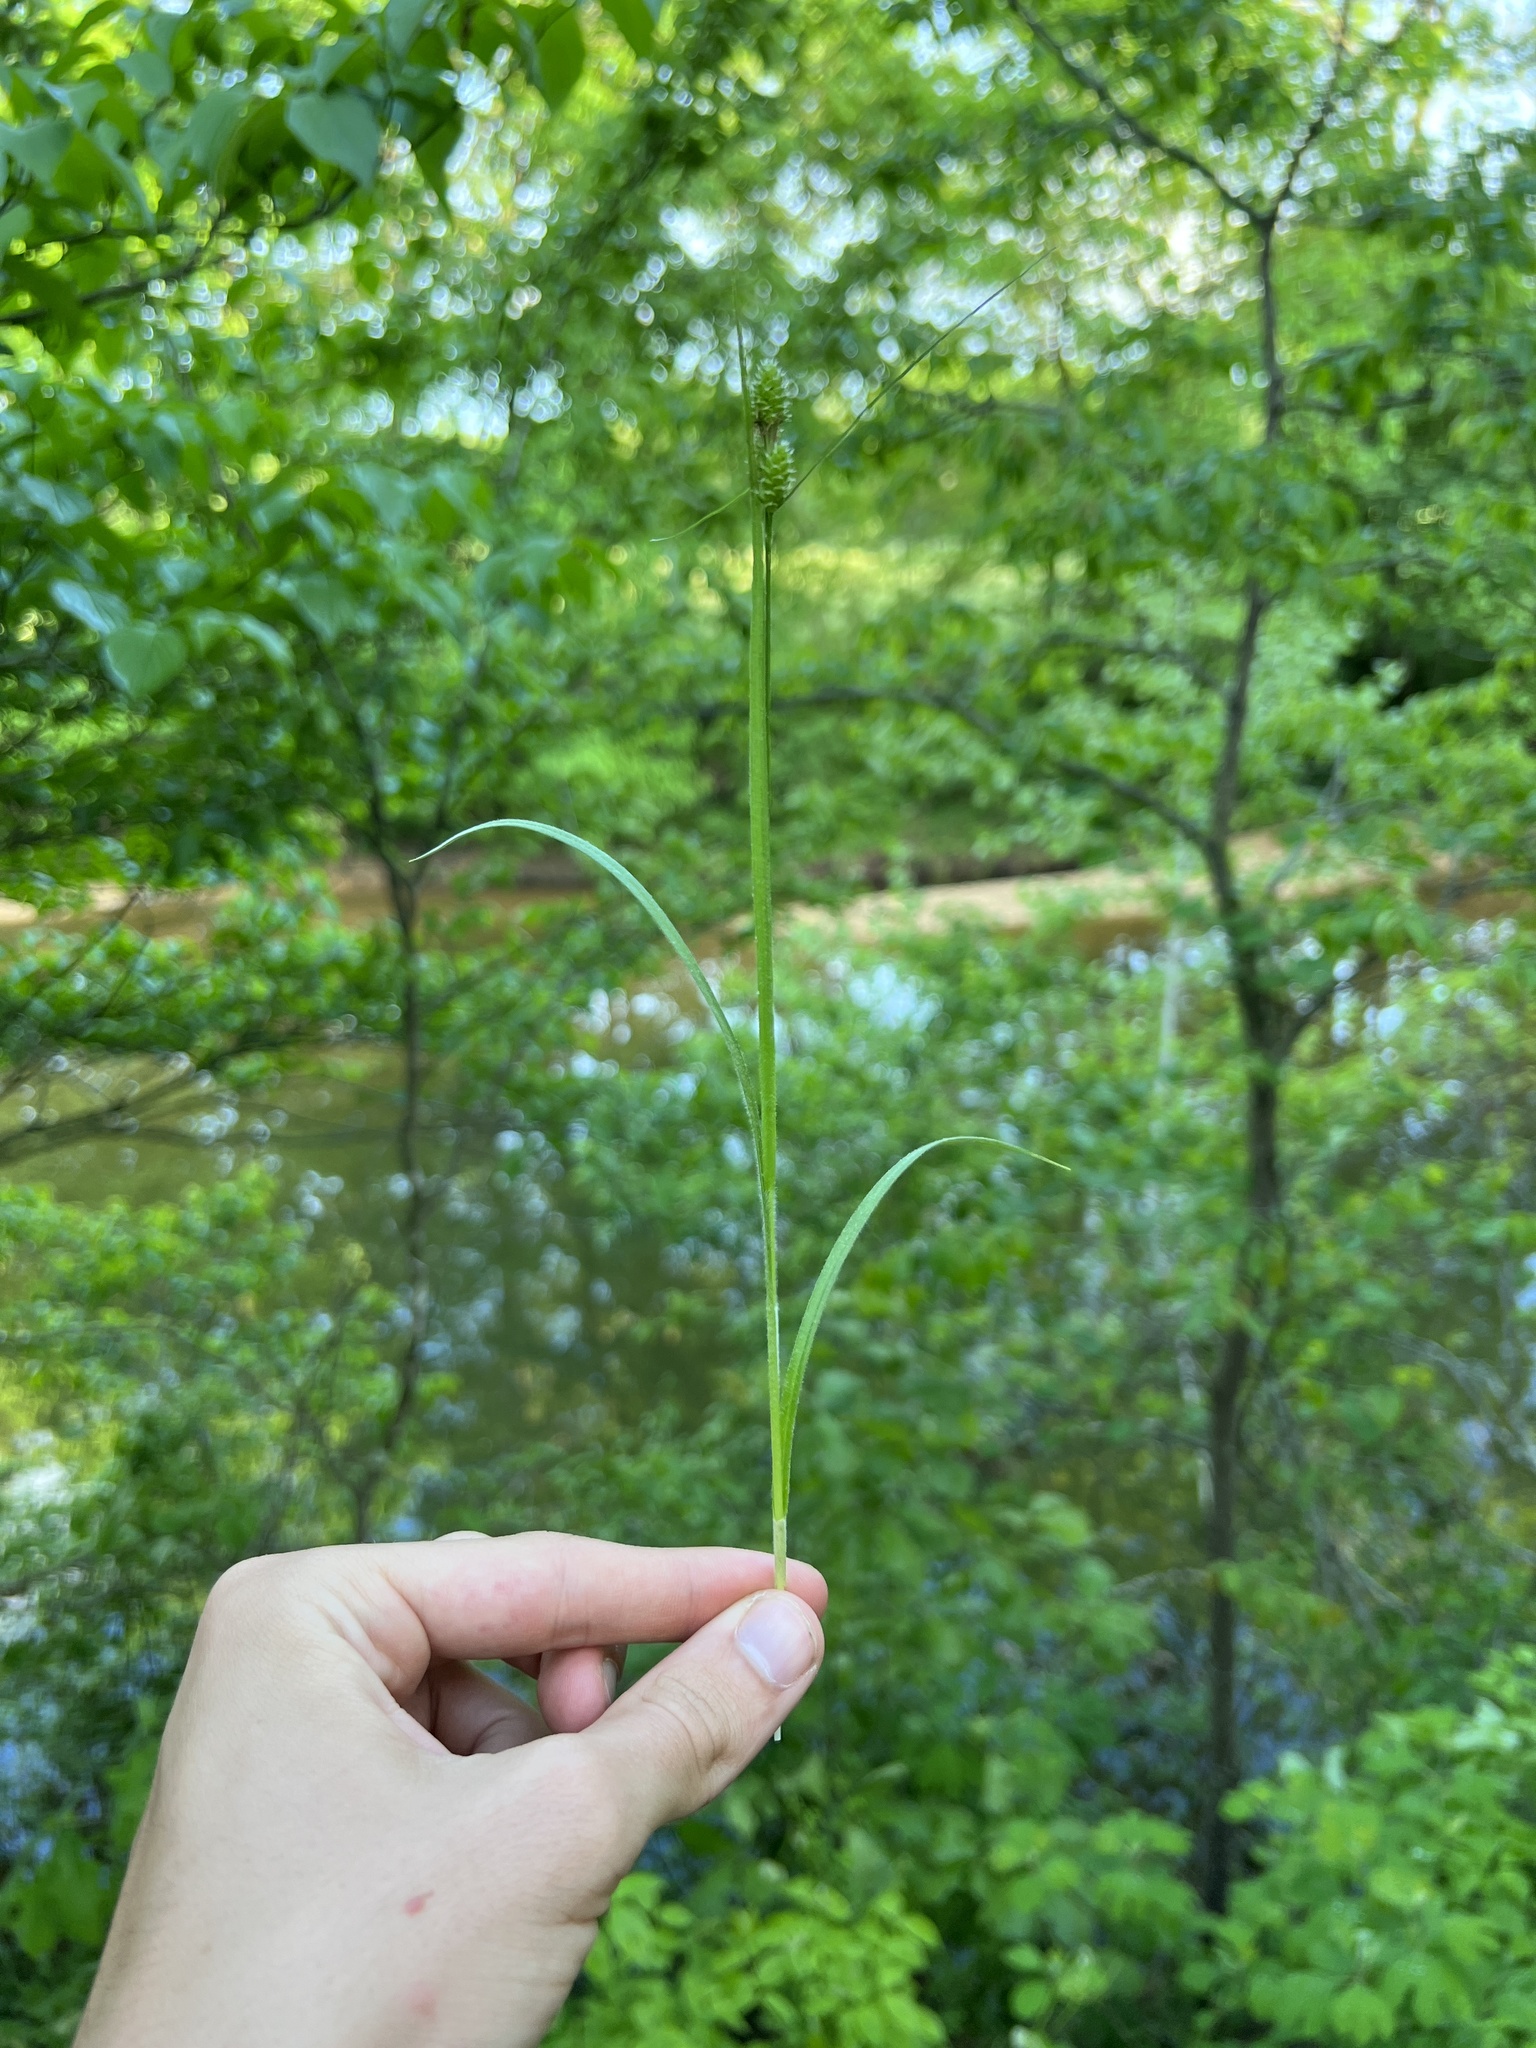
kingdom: Plantae
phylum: Tracheophyta
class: Liliopsida
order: Poales
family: Cyperaceae
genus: Carex
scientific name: Carex hirsutella
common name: Fuzzy wuzzy sedge
